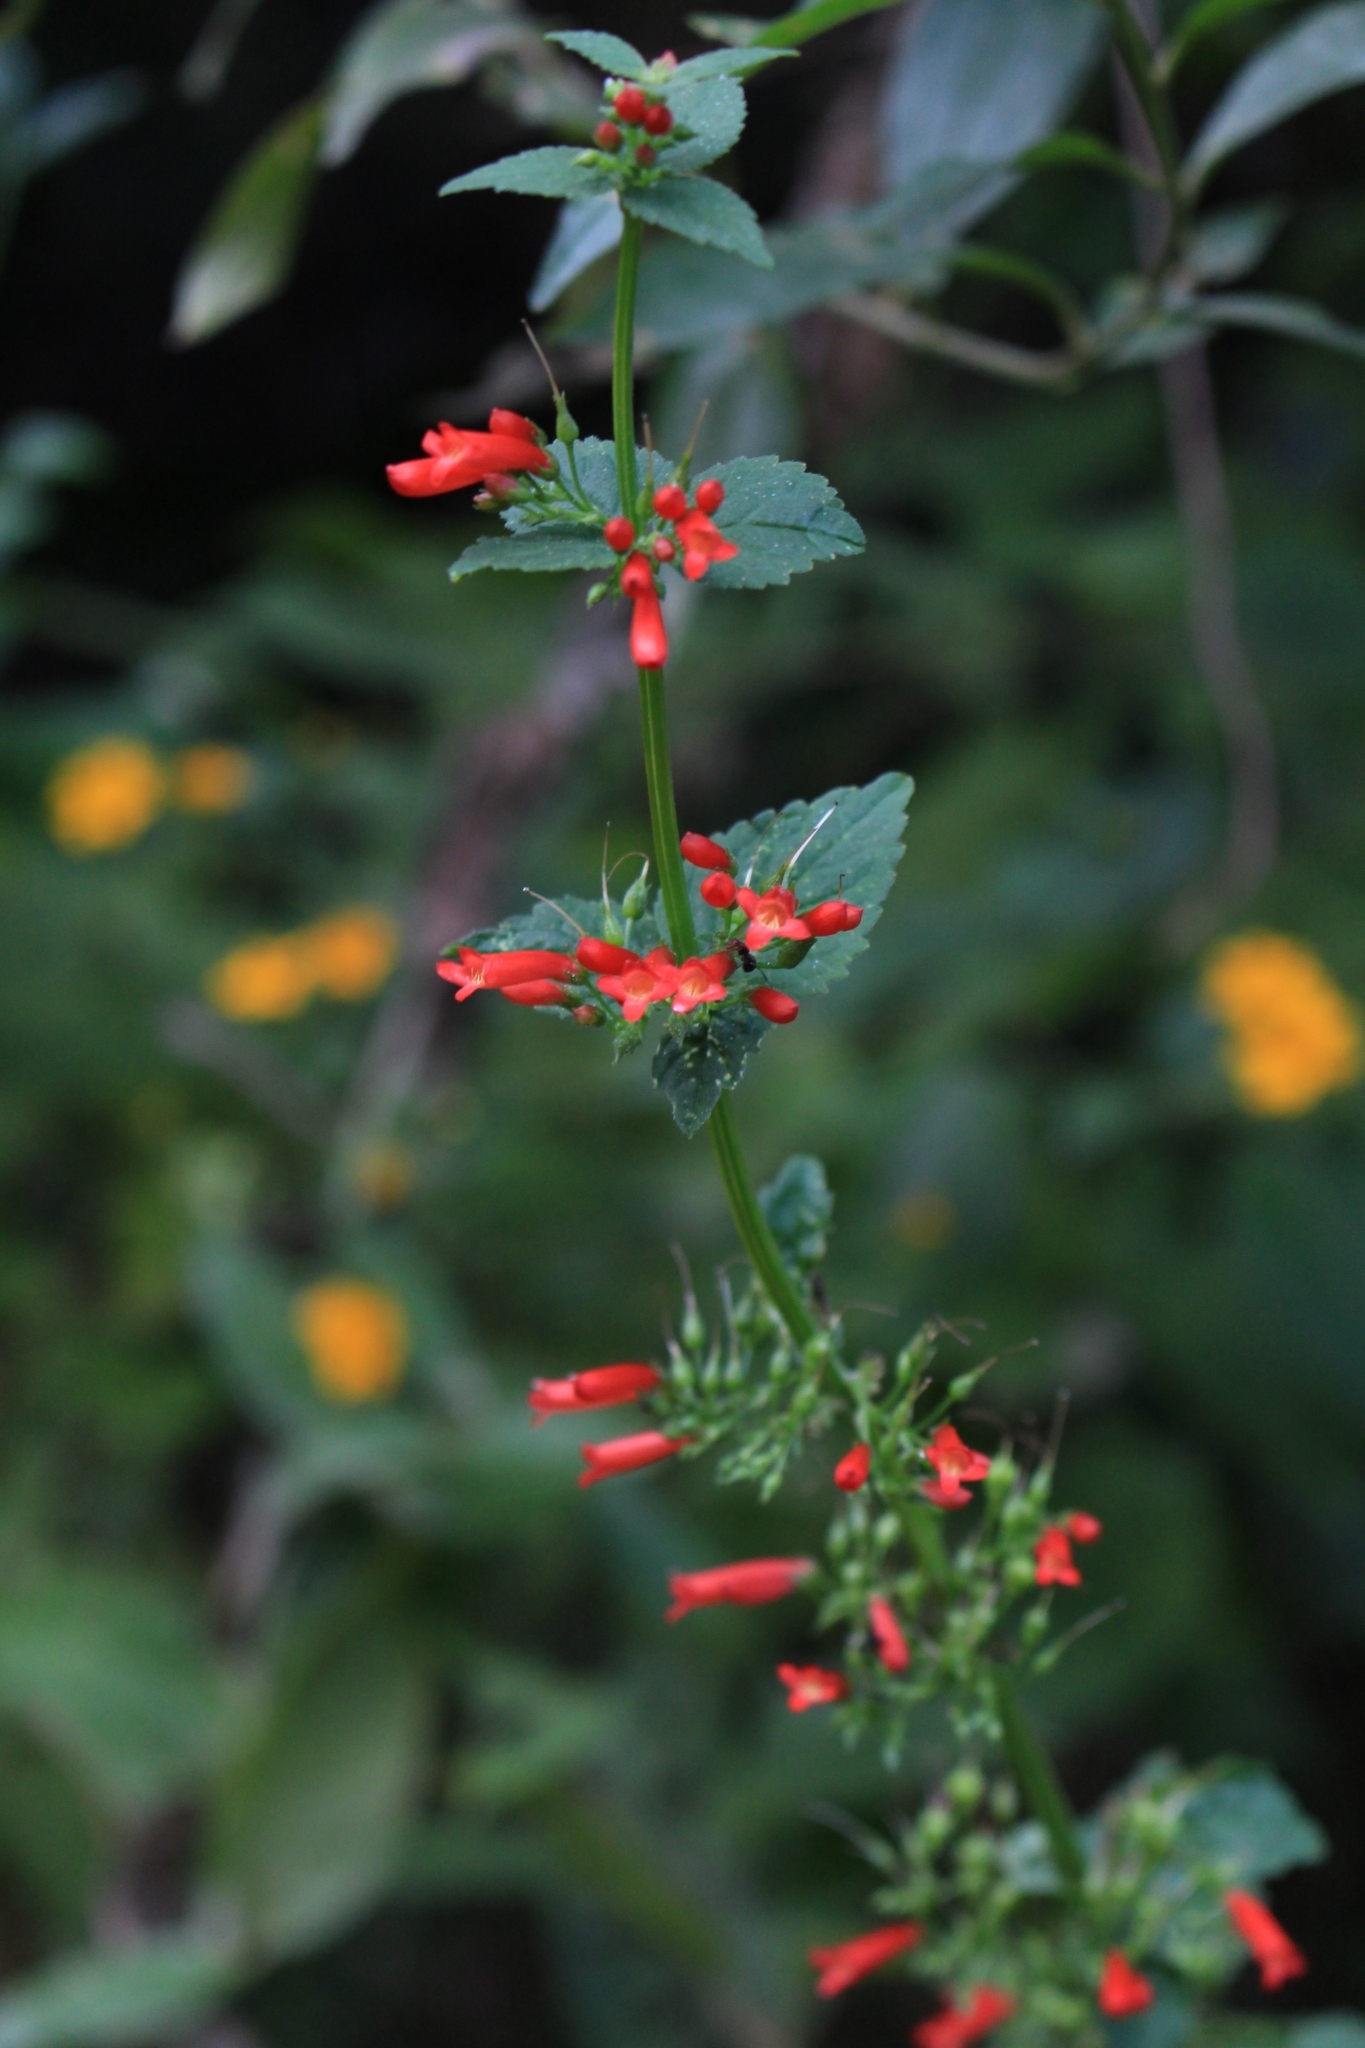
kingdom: Plantae
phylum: Tracheophyta
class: Magnoliopsida
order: Lamiales
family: Plantaginaceae
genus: Russelia
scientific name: Russelia sarmentosa
